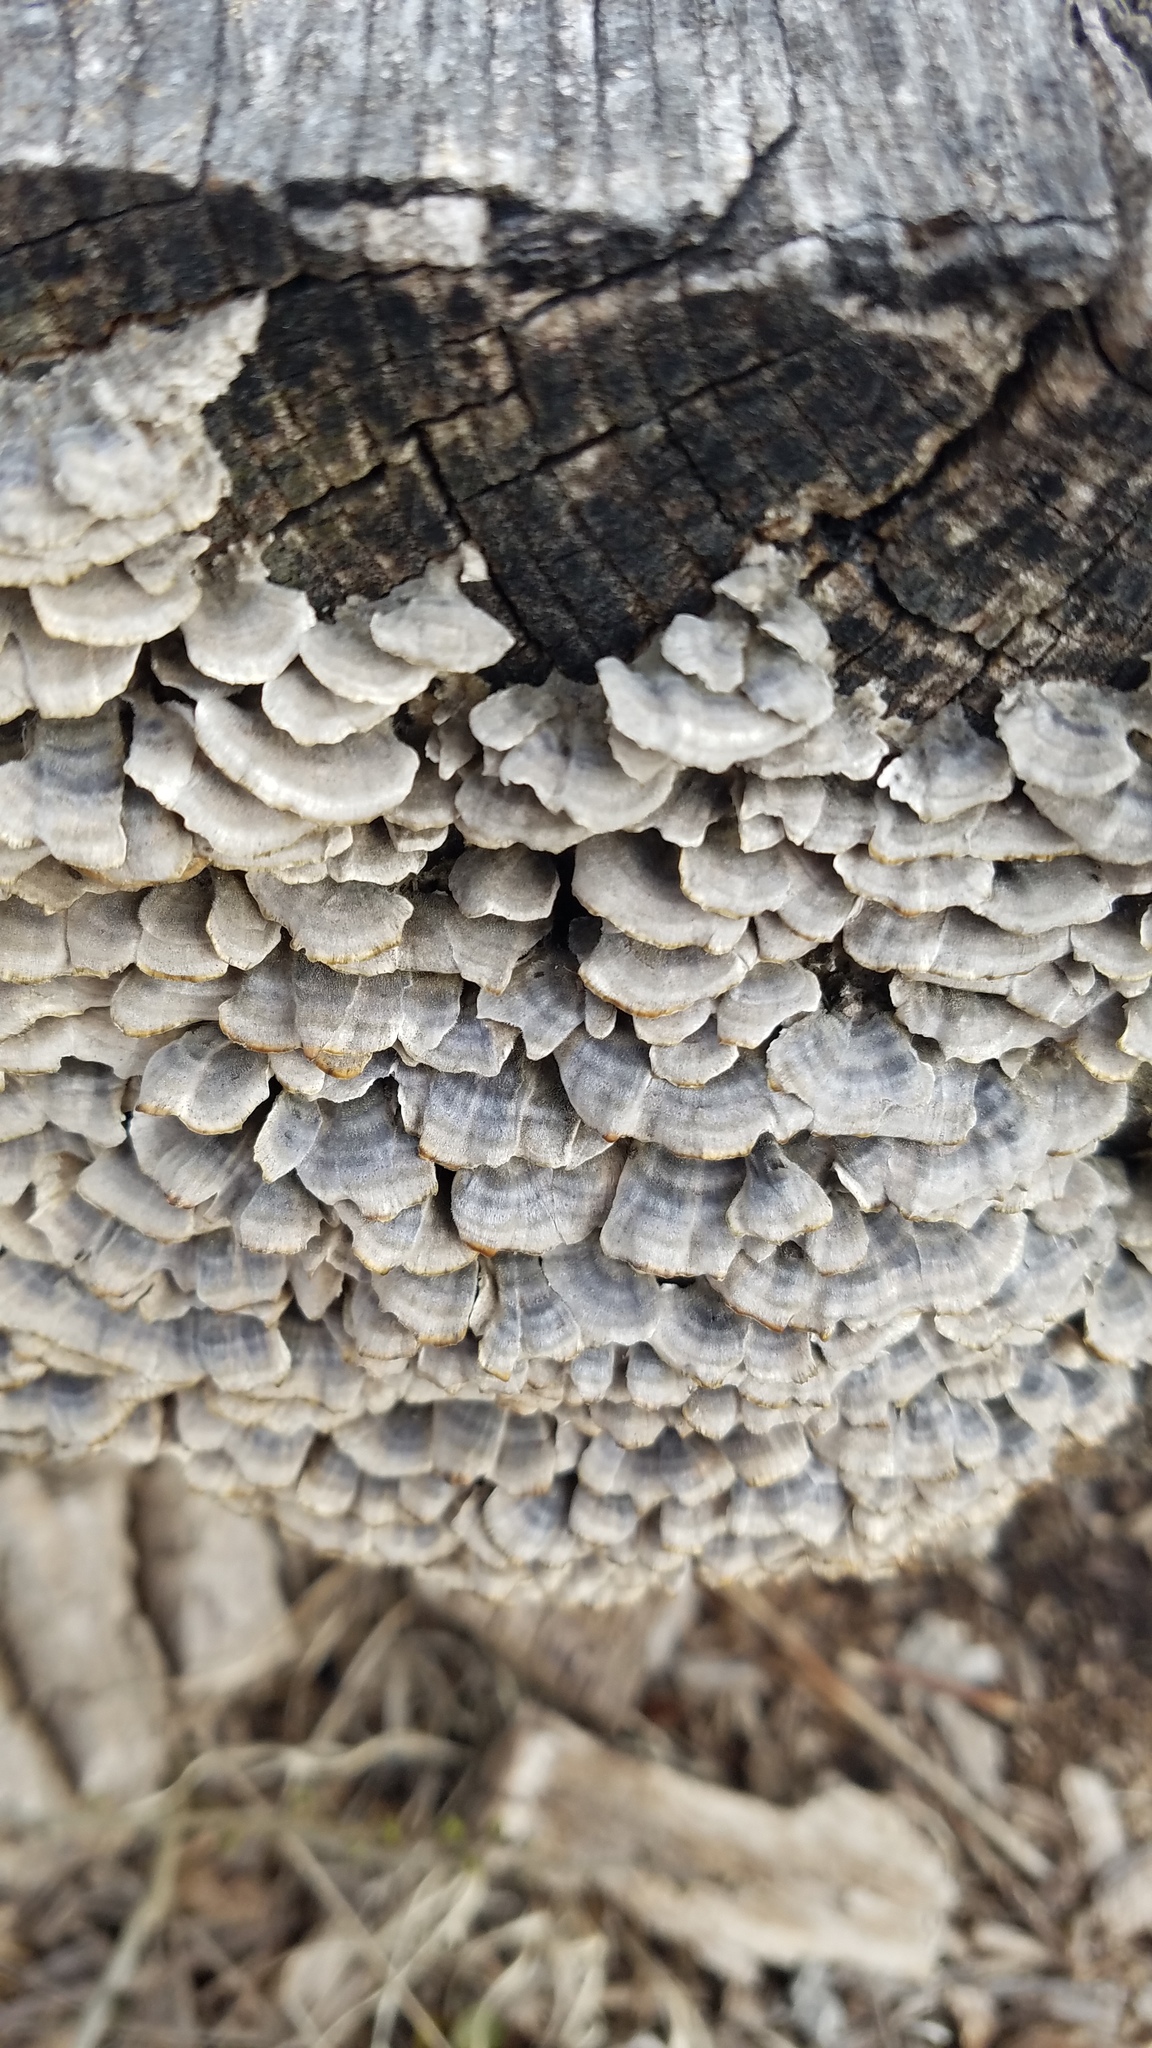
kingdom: Fungi
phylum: Basidiomycota
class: Agaricomycetes
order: Polyporales
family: Polyporaceae
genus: Trametes
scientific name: Trametes versicolor
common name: Turkeytail
